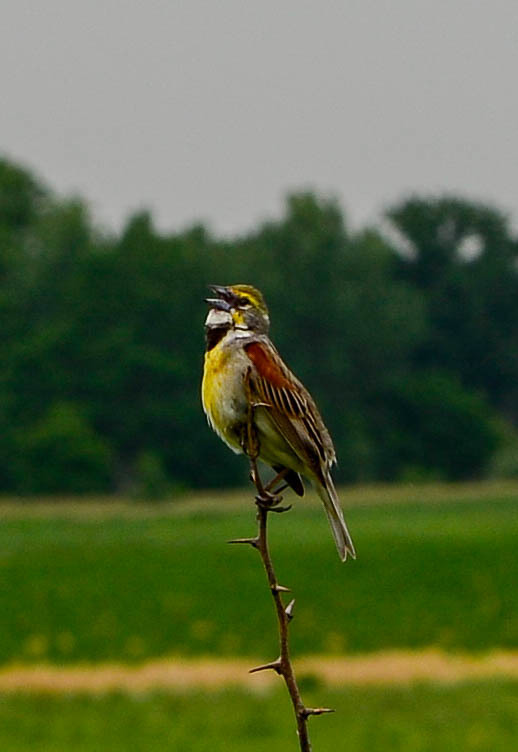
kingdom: Animalia
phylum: Chordata
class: Aves
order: Passeriformes
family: Cardinalidae
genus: Spiza
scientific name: Spiza americana
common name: Dickcissel
